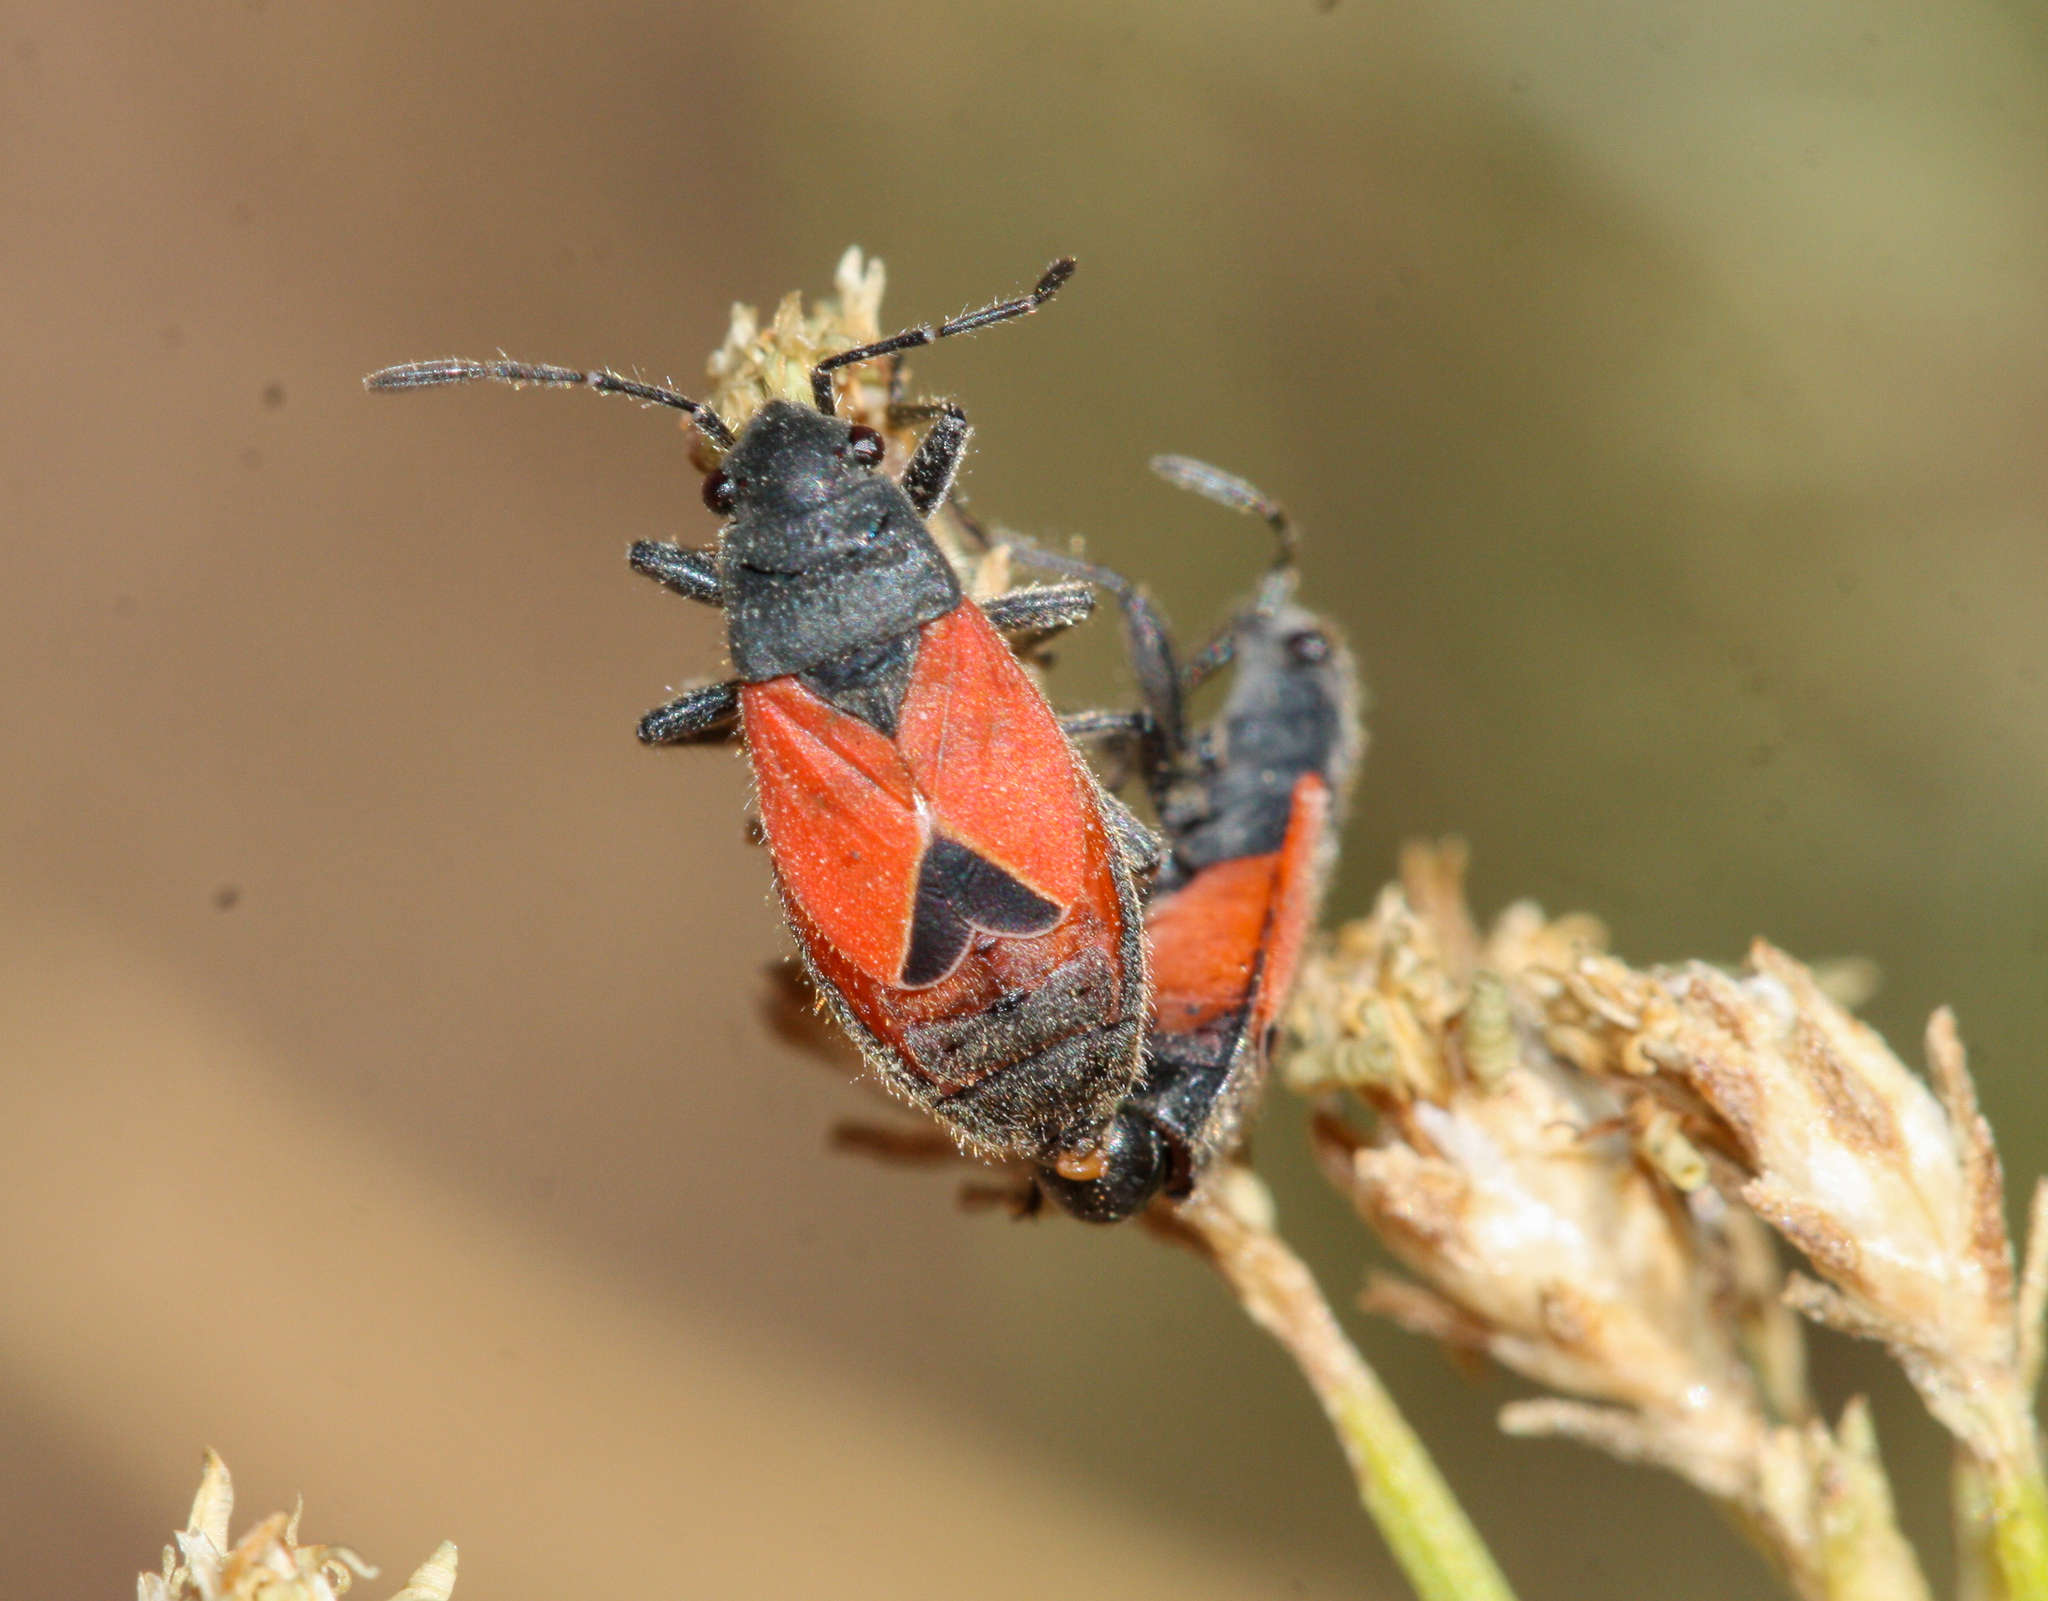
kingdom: Animalia
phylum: Arthropoda
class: Insecta
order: Hemiptera
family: Lygaeidae
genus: Melanopleurus
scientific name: Melanopleurus tenor
